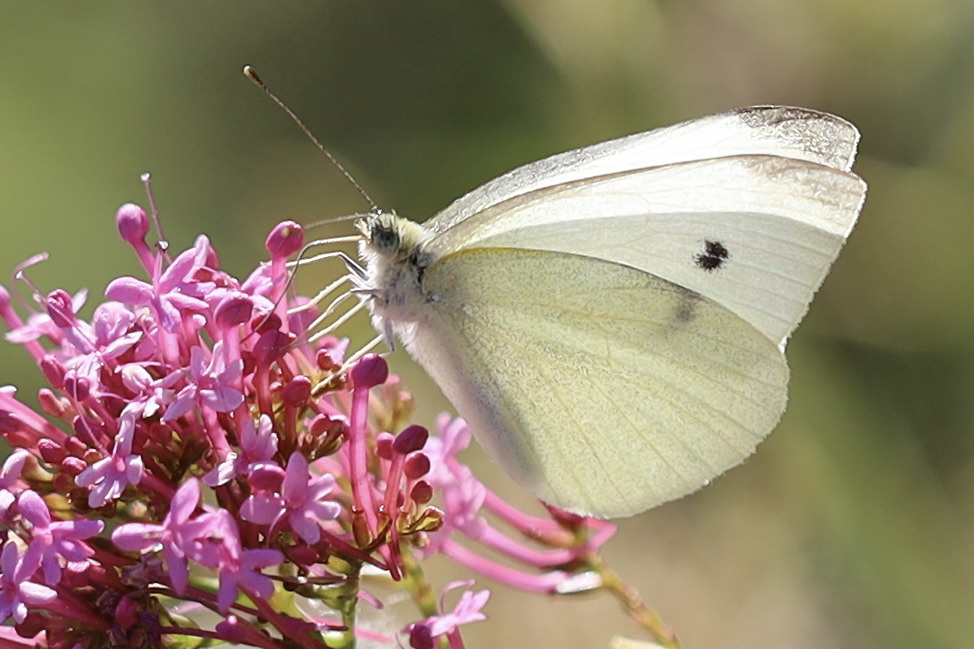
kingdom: Animalia
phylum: Arthropoda
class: Insecta
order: Lepidoptera
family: Pieridae
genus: Pieris
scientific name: Pieris rapae
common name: Small white
